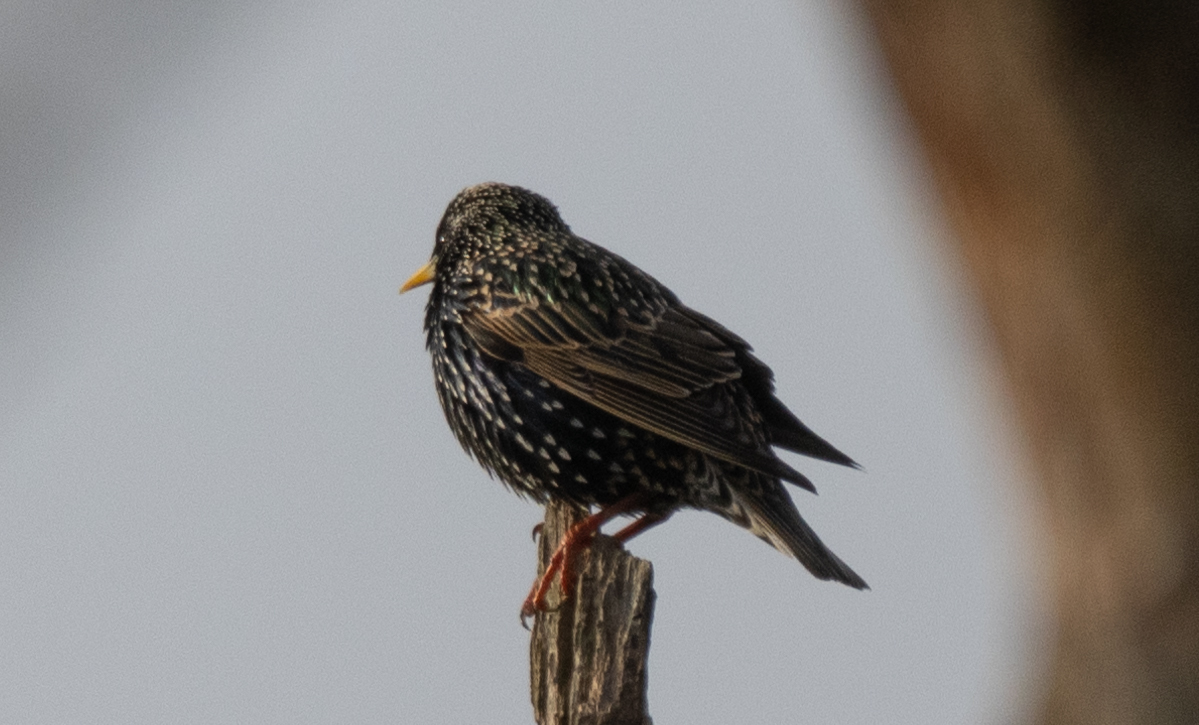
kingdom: Animalia
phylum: Chordata
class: Aves
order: Passeriformes
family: Sturnidae
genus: Sturnus
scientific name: Sturnus vulgaris
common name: Common starling
